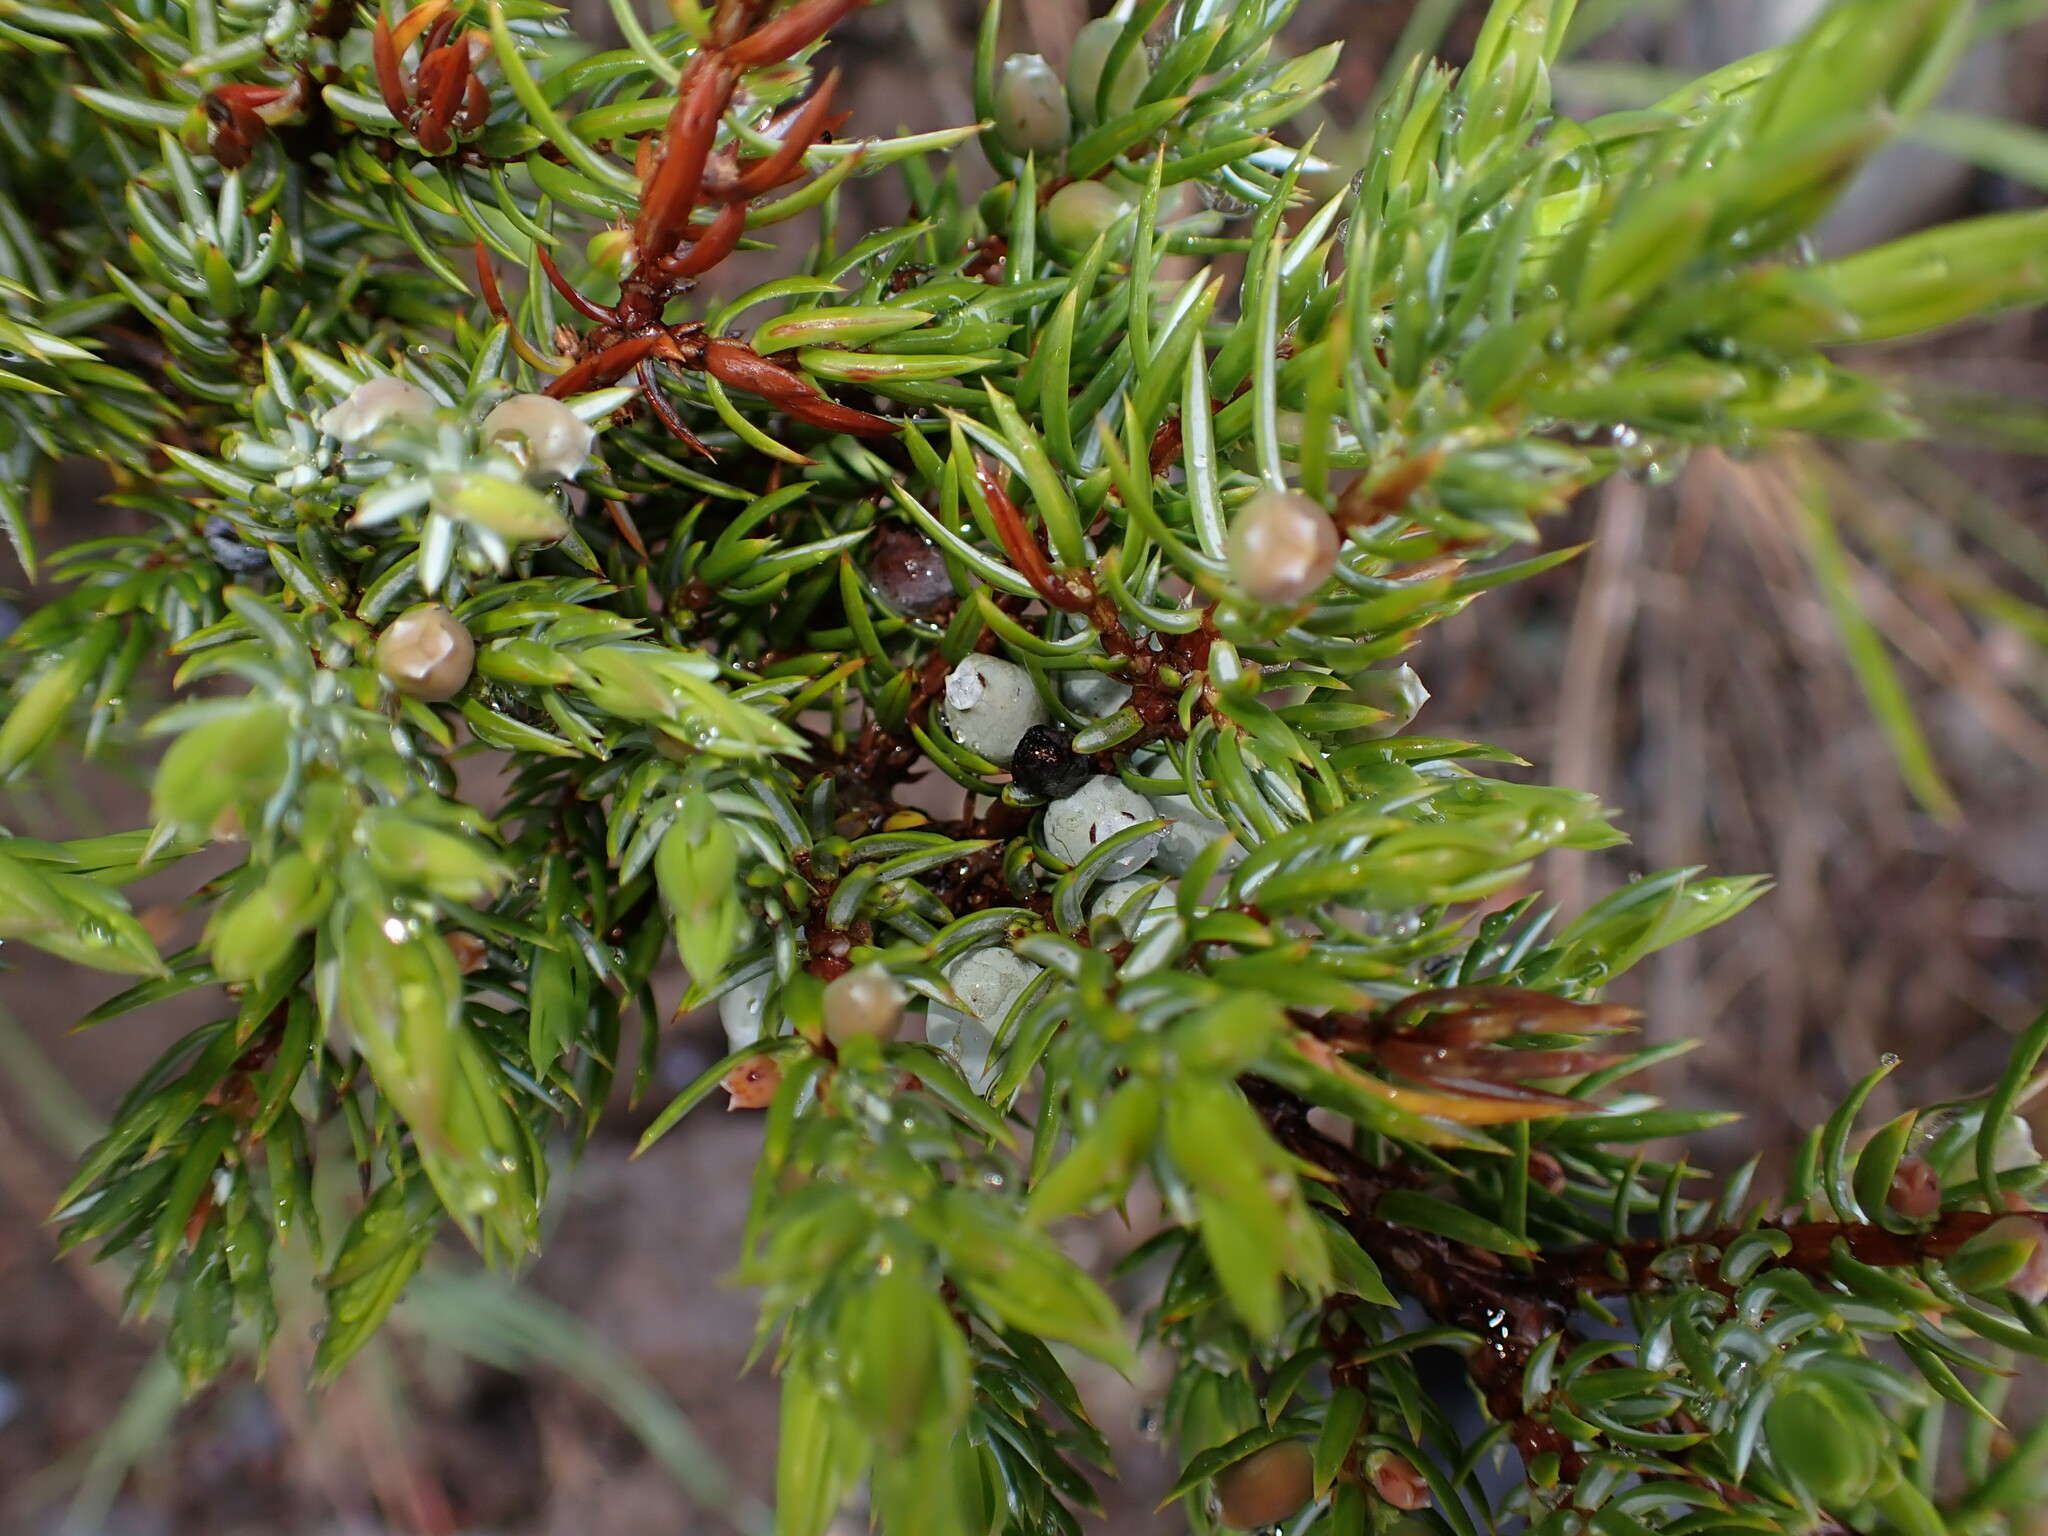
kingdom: Plantae
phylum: Tracheophyta
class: Pinopsida
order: Pinales
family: Cupressaceae
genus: Juniperus
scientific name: Juniperus communis
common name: Common juniper
